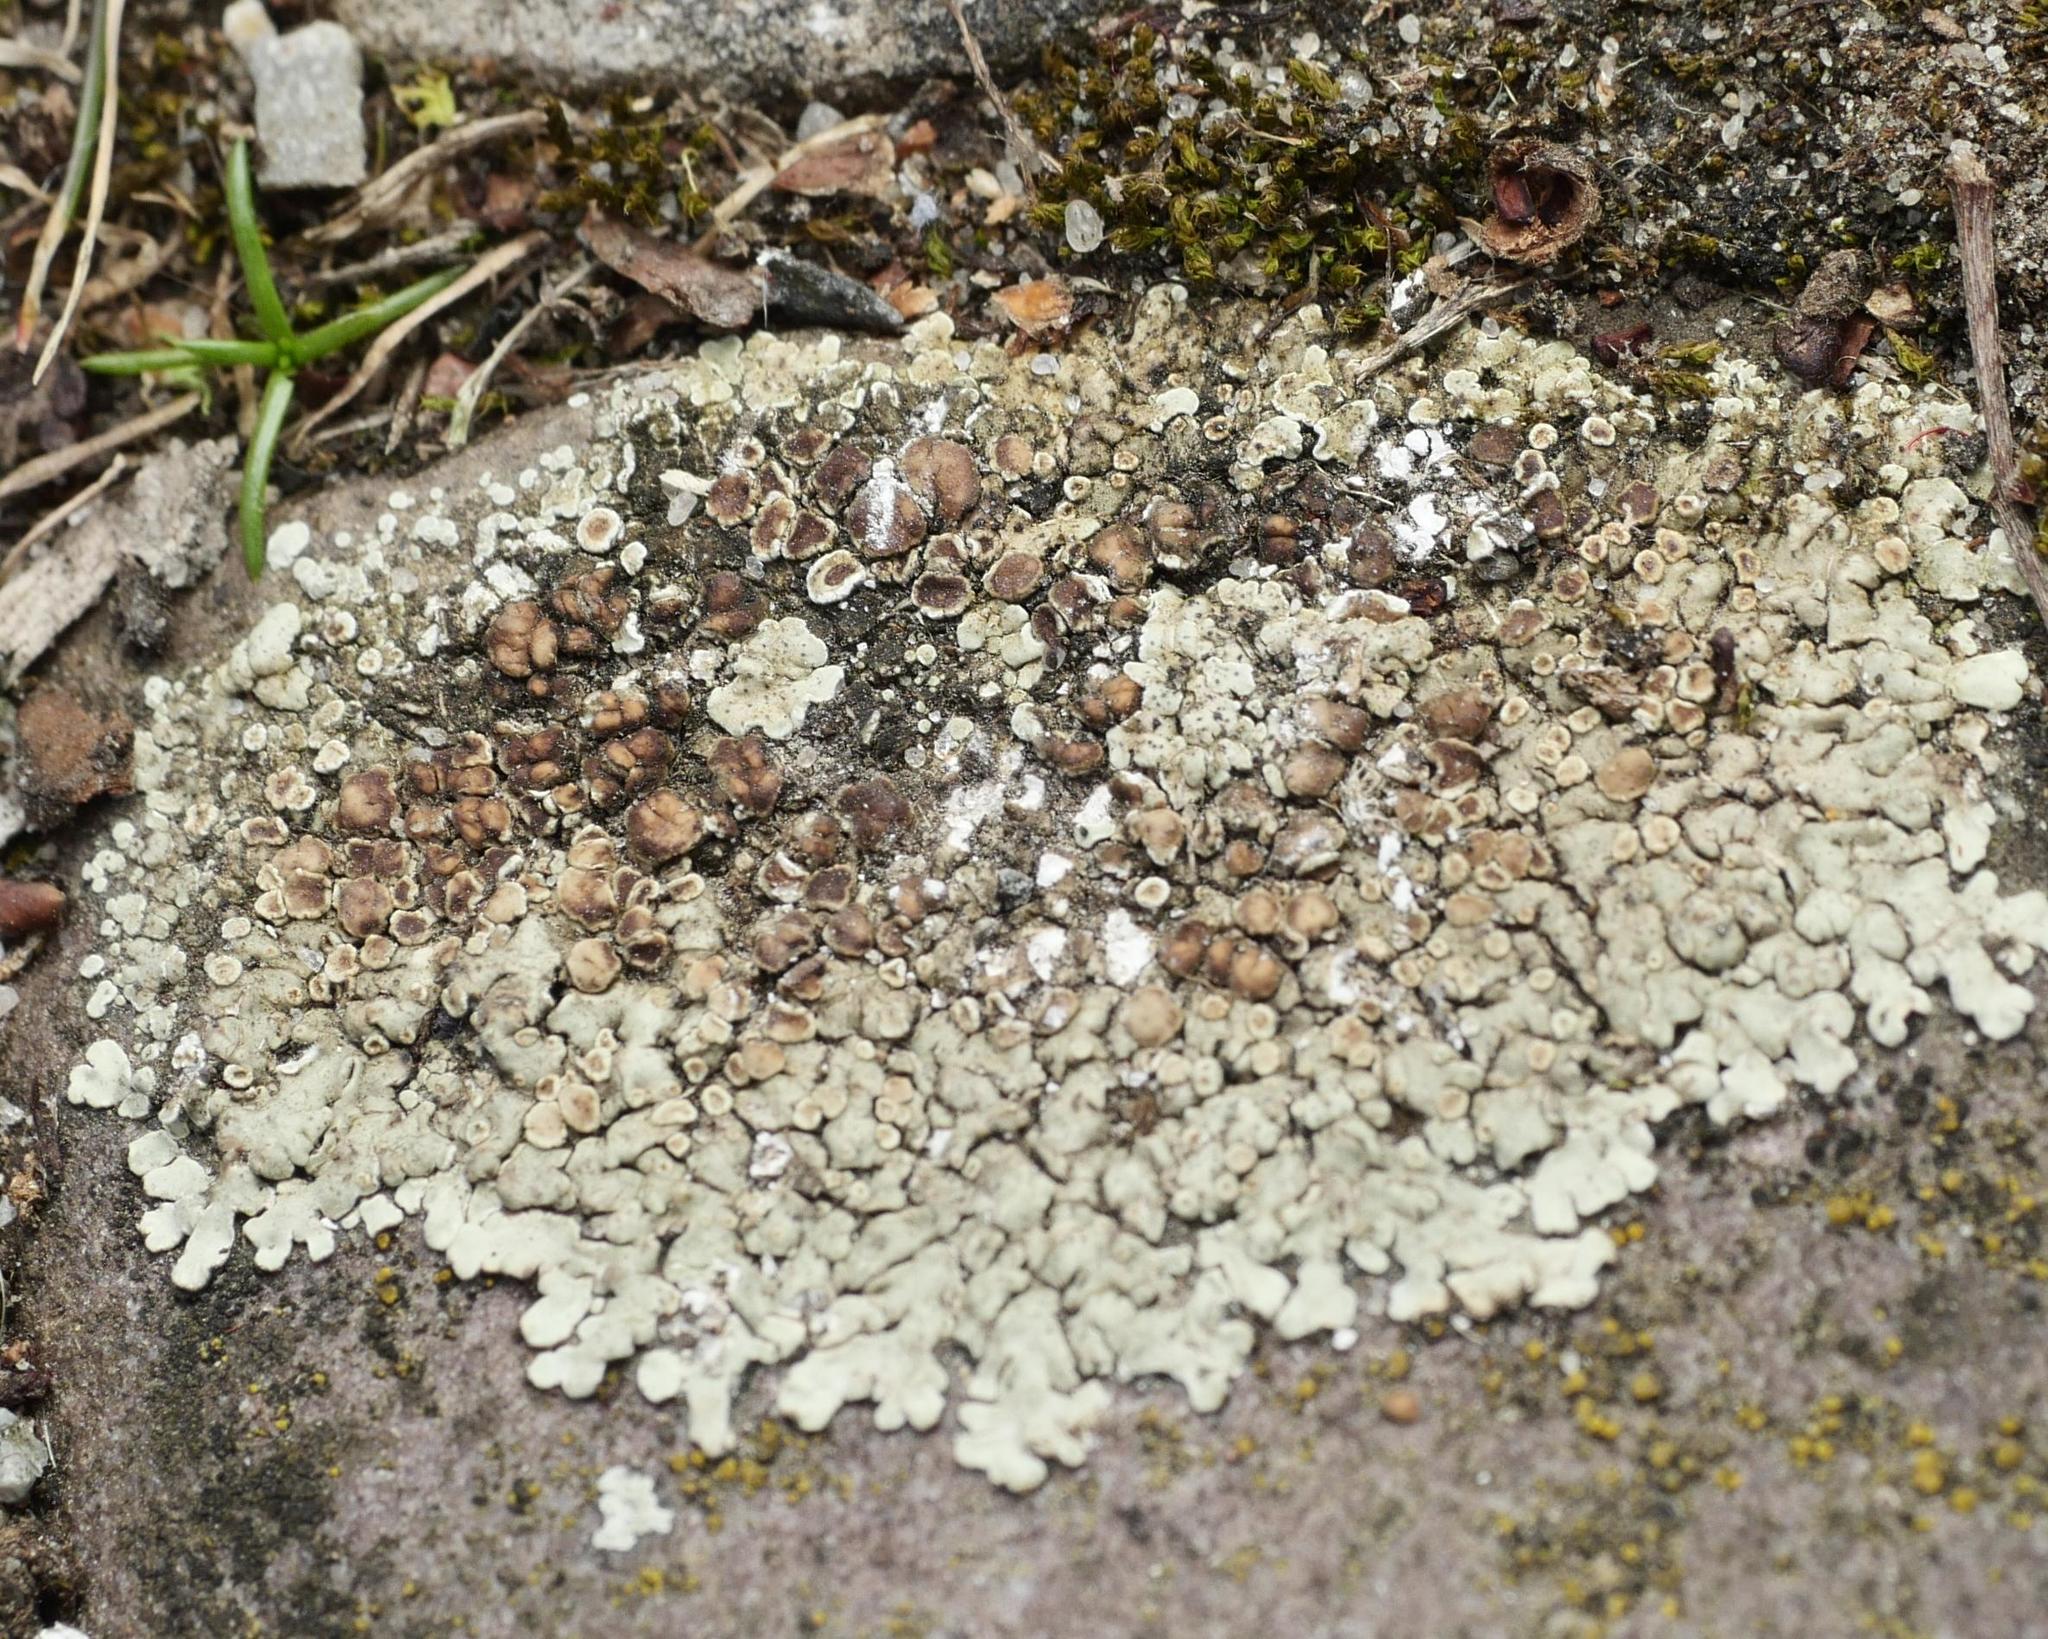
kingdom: Fungi
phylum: Ascomycota
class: Lecanoromycetes
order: Lecanorales
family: Lecanoraceae
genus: Protoparmeliopsis
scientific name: Protoparmeliopsis muralis
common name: Stonewall rim lichen
